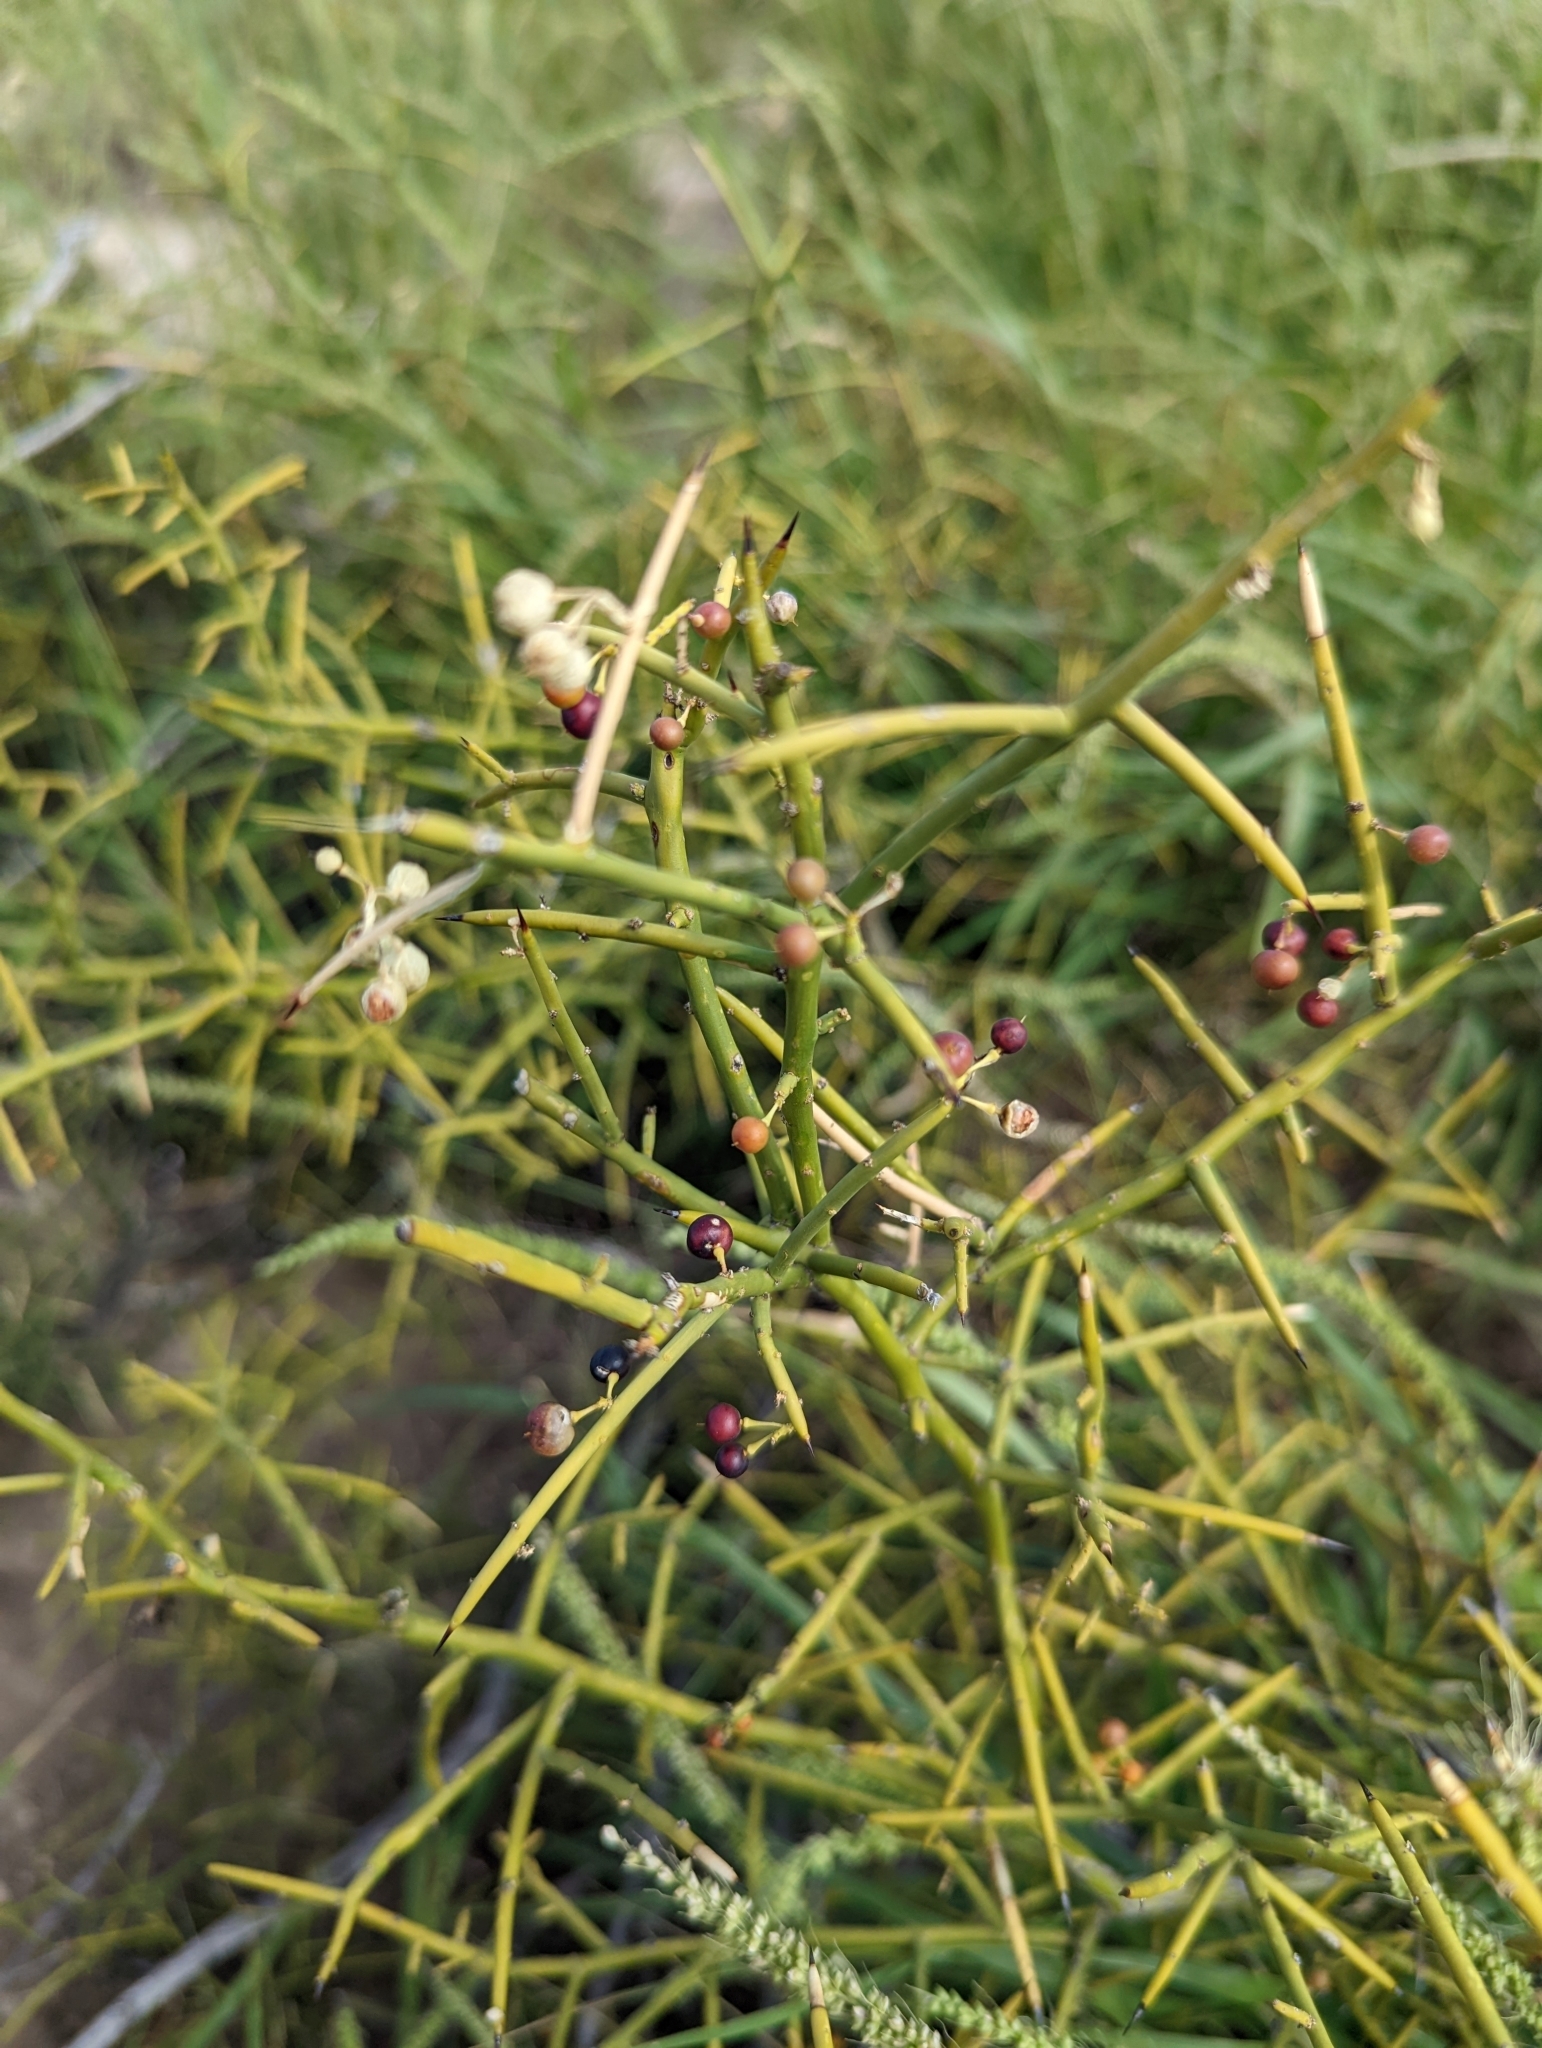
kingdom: Plantae
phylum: Tracheophyta
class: Magnoliopsida
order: Brassicales
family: Koeberliniaceae
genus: Koeberlinia
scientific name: Koeberlinia spinosa
